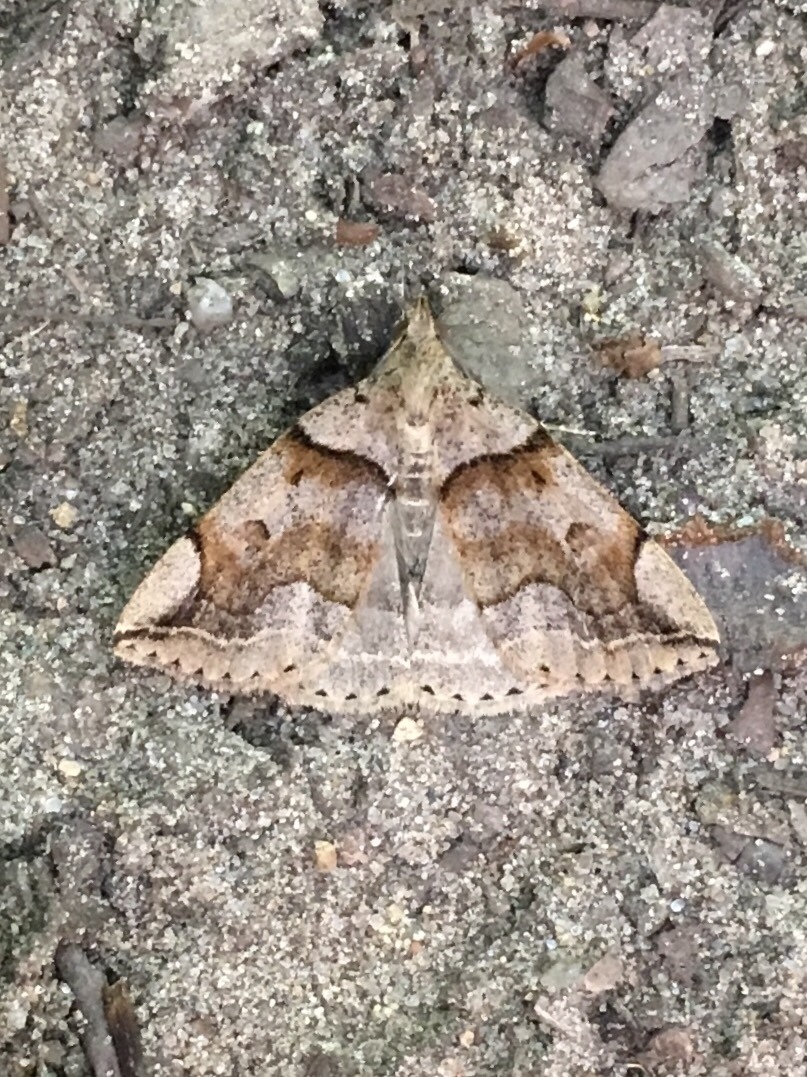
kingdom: Animalia
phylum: Arthropoda
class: Insecta
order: Lepidoptera
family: Erebidae
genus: Zanclognatha
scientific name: Zanclognatha laevigata
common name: Variable fan-foot
